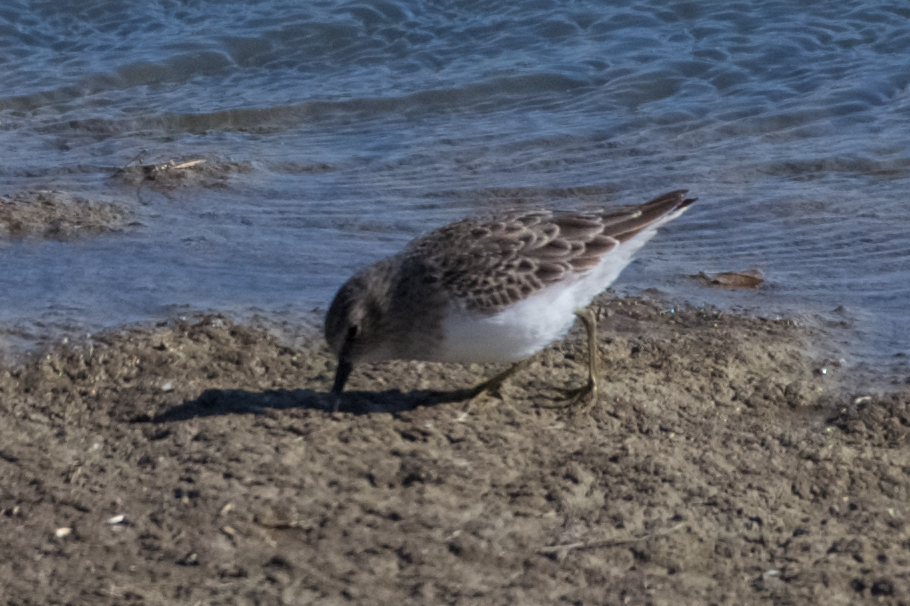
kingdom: Animalia
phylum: Chordata
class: Aves
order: Charadriiformes
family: Scolopacidae
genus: Calidris
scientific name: Calidris minutilla
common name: Least sandpiper
